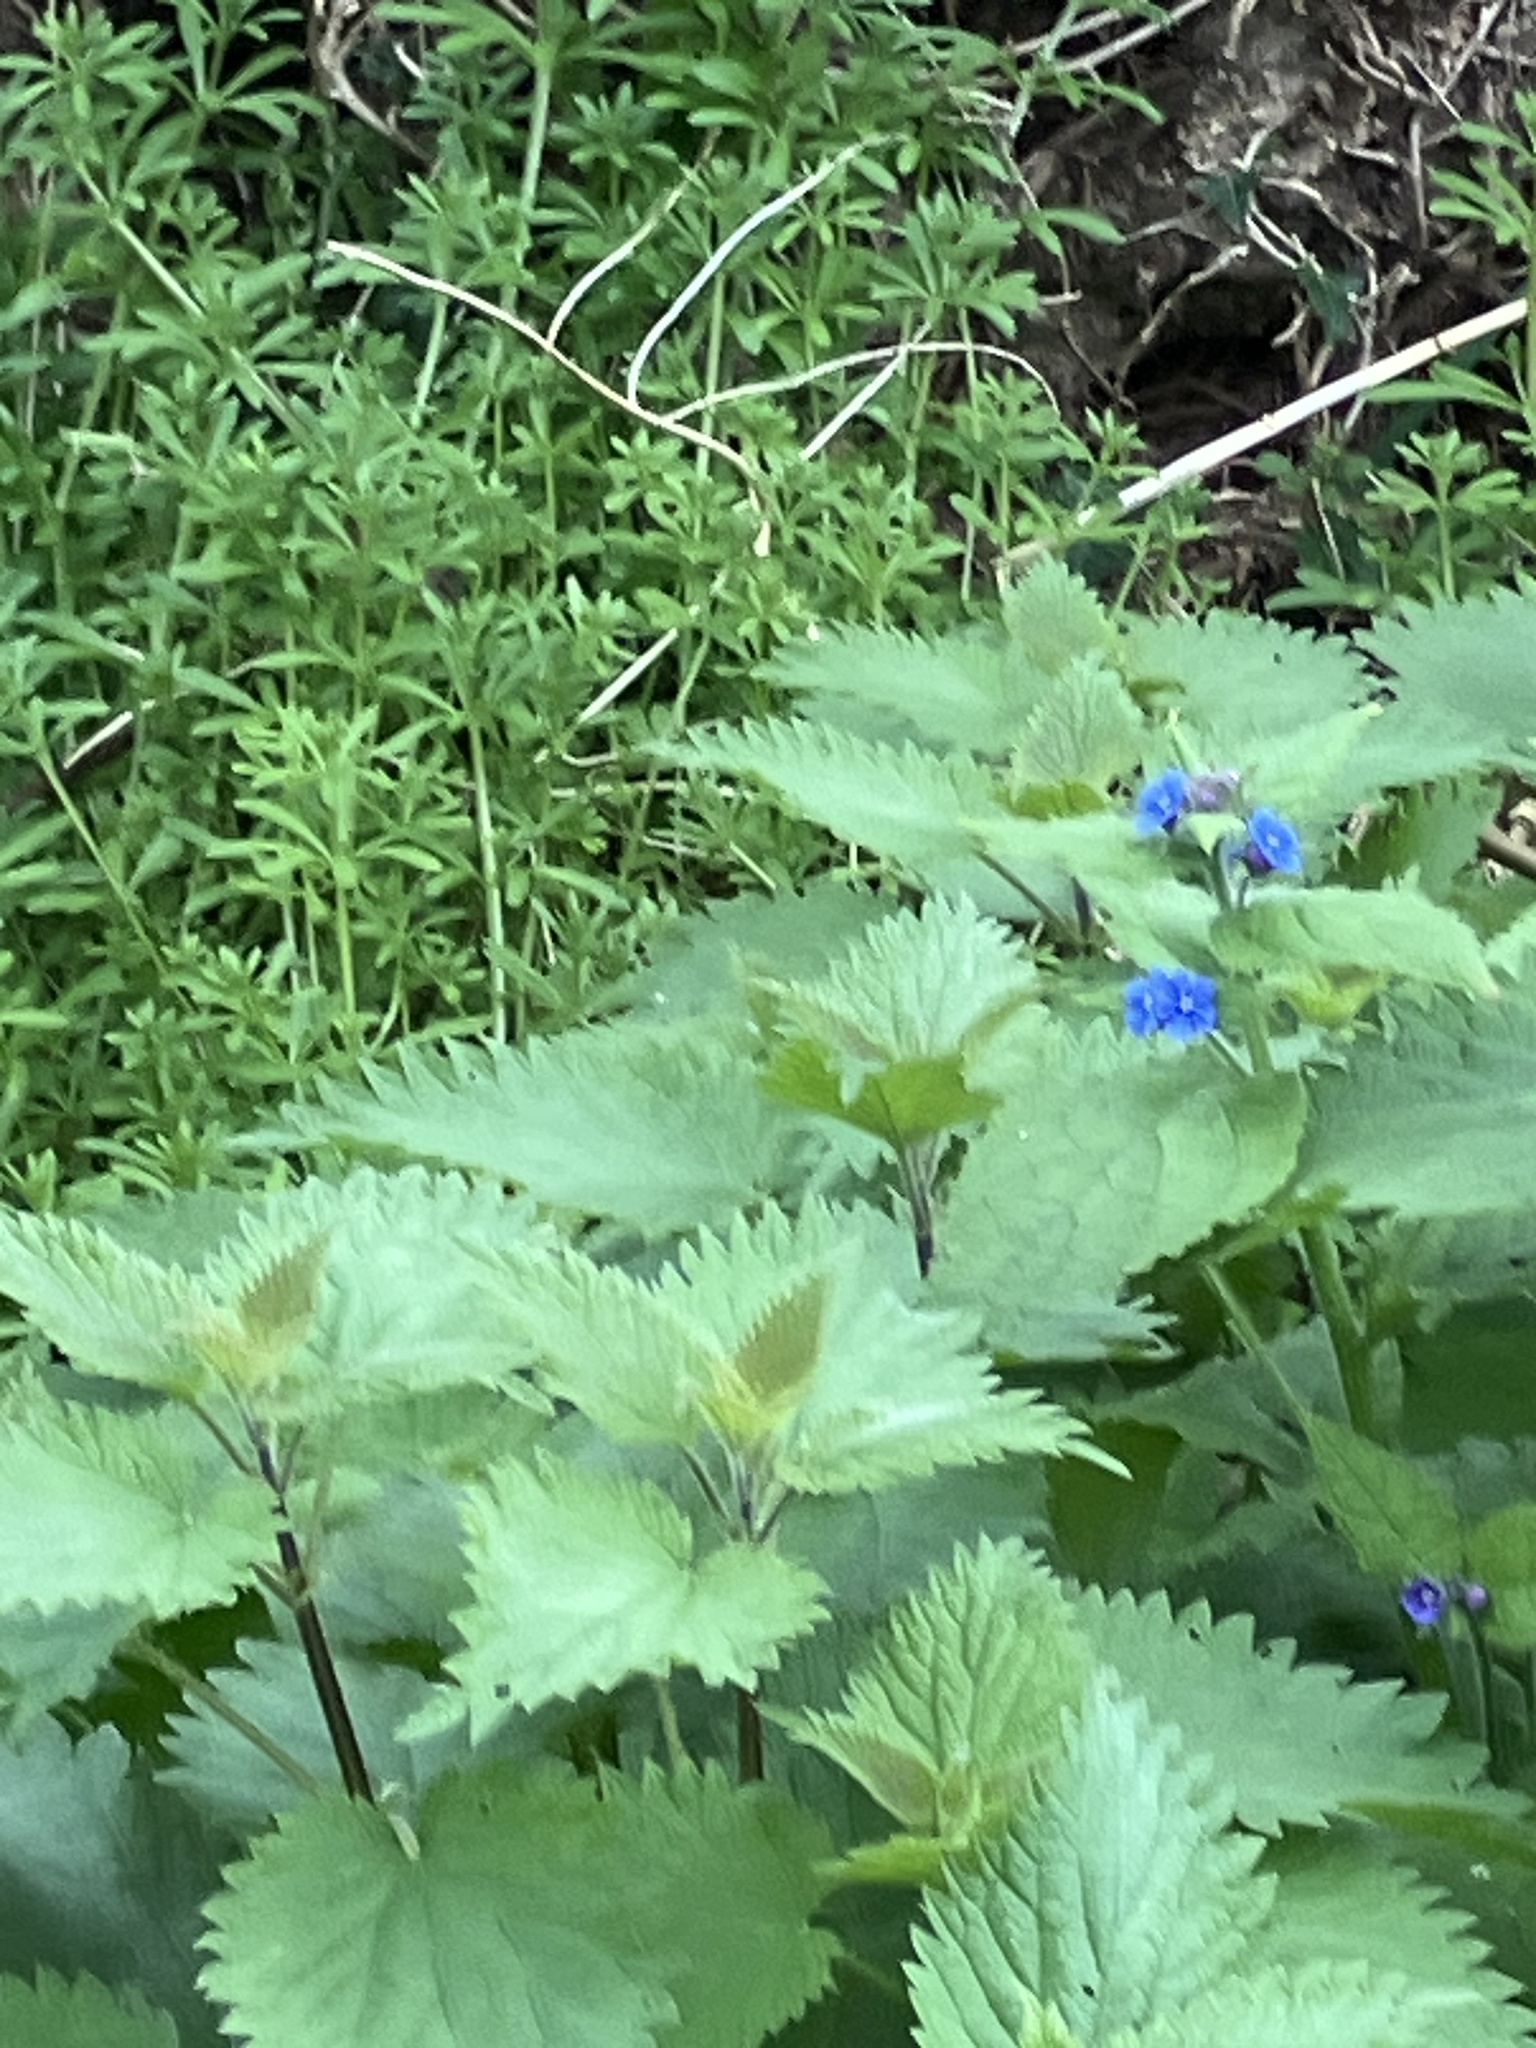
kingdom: Plantae
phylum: Tracheophyta
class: Magnoliopsida
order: Boraginales
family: Boraginaceae
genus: Pentaglottis
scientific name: Pentaglottis sempervirens
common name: Green alkanet
